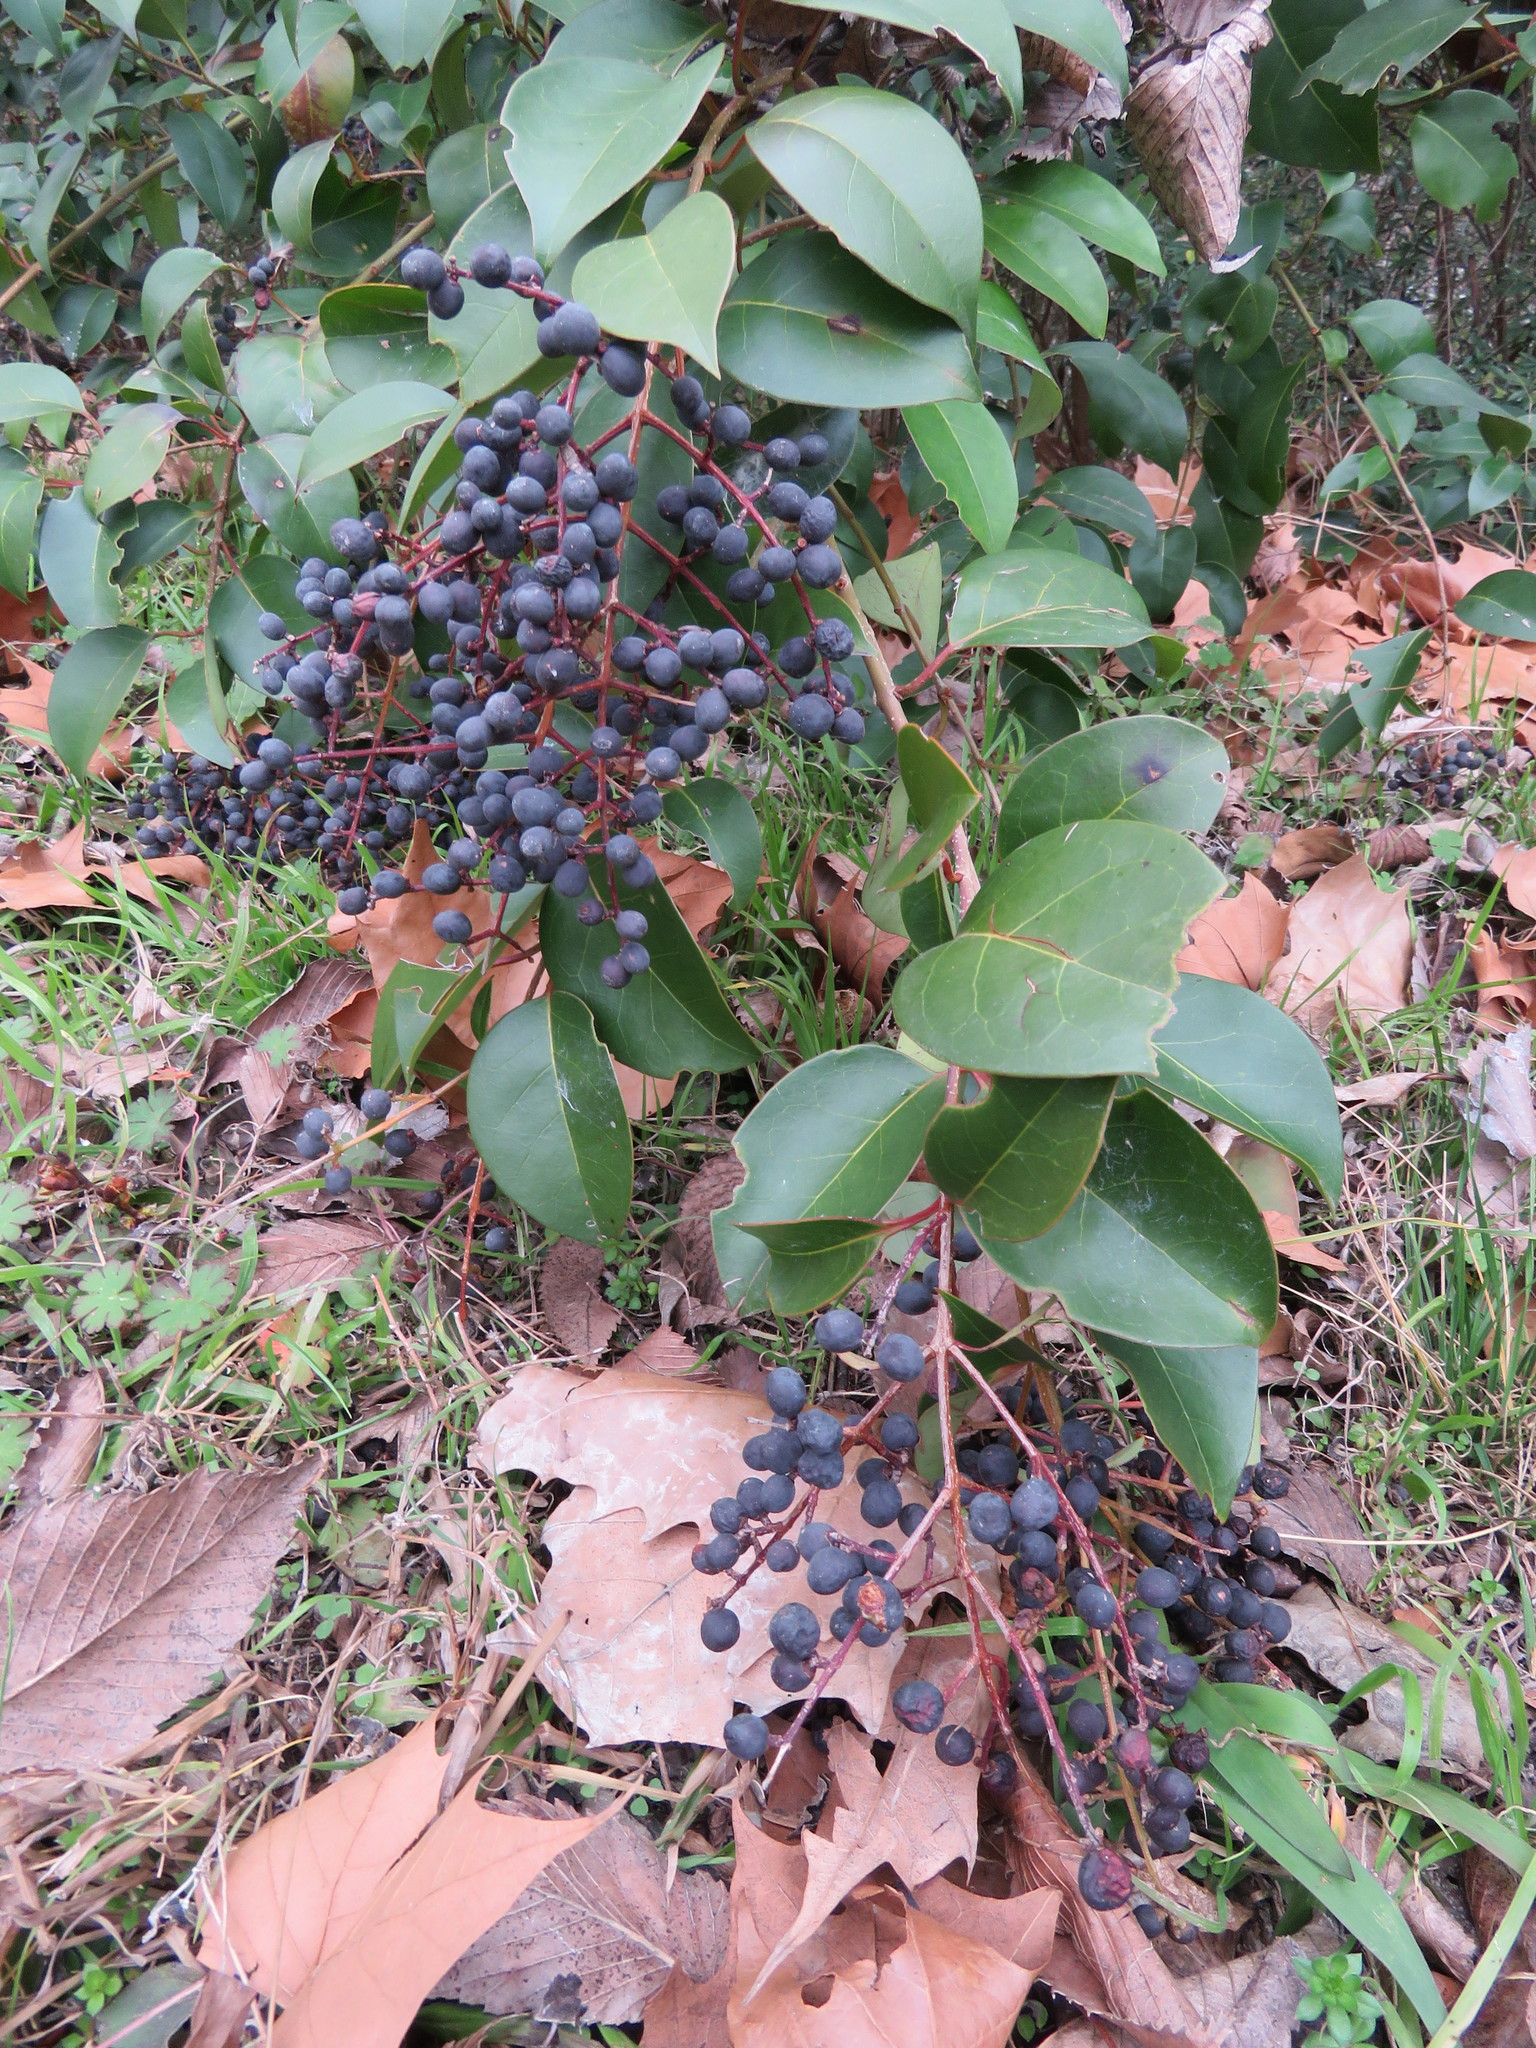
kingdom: Plantae
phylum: Tracheophyta
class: Magnoliopsida
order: Lamiales
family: Oleaceae
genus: Ligustrum
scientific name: Ligustrum lucidum
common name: Glossy privet
